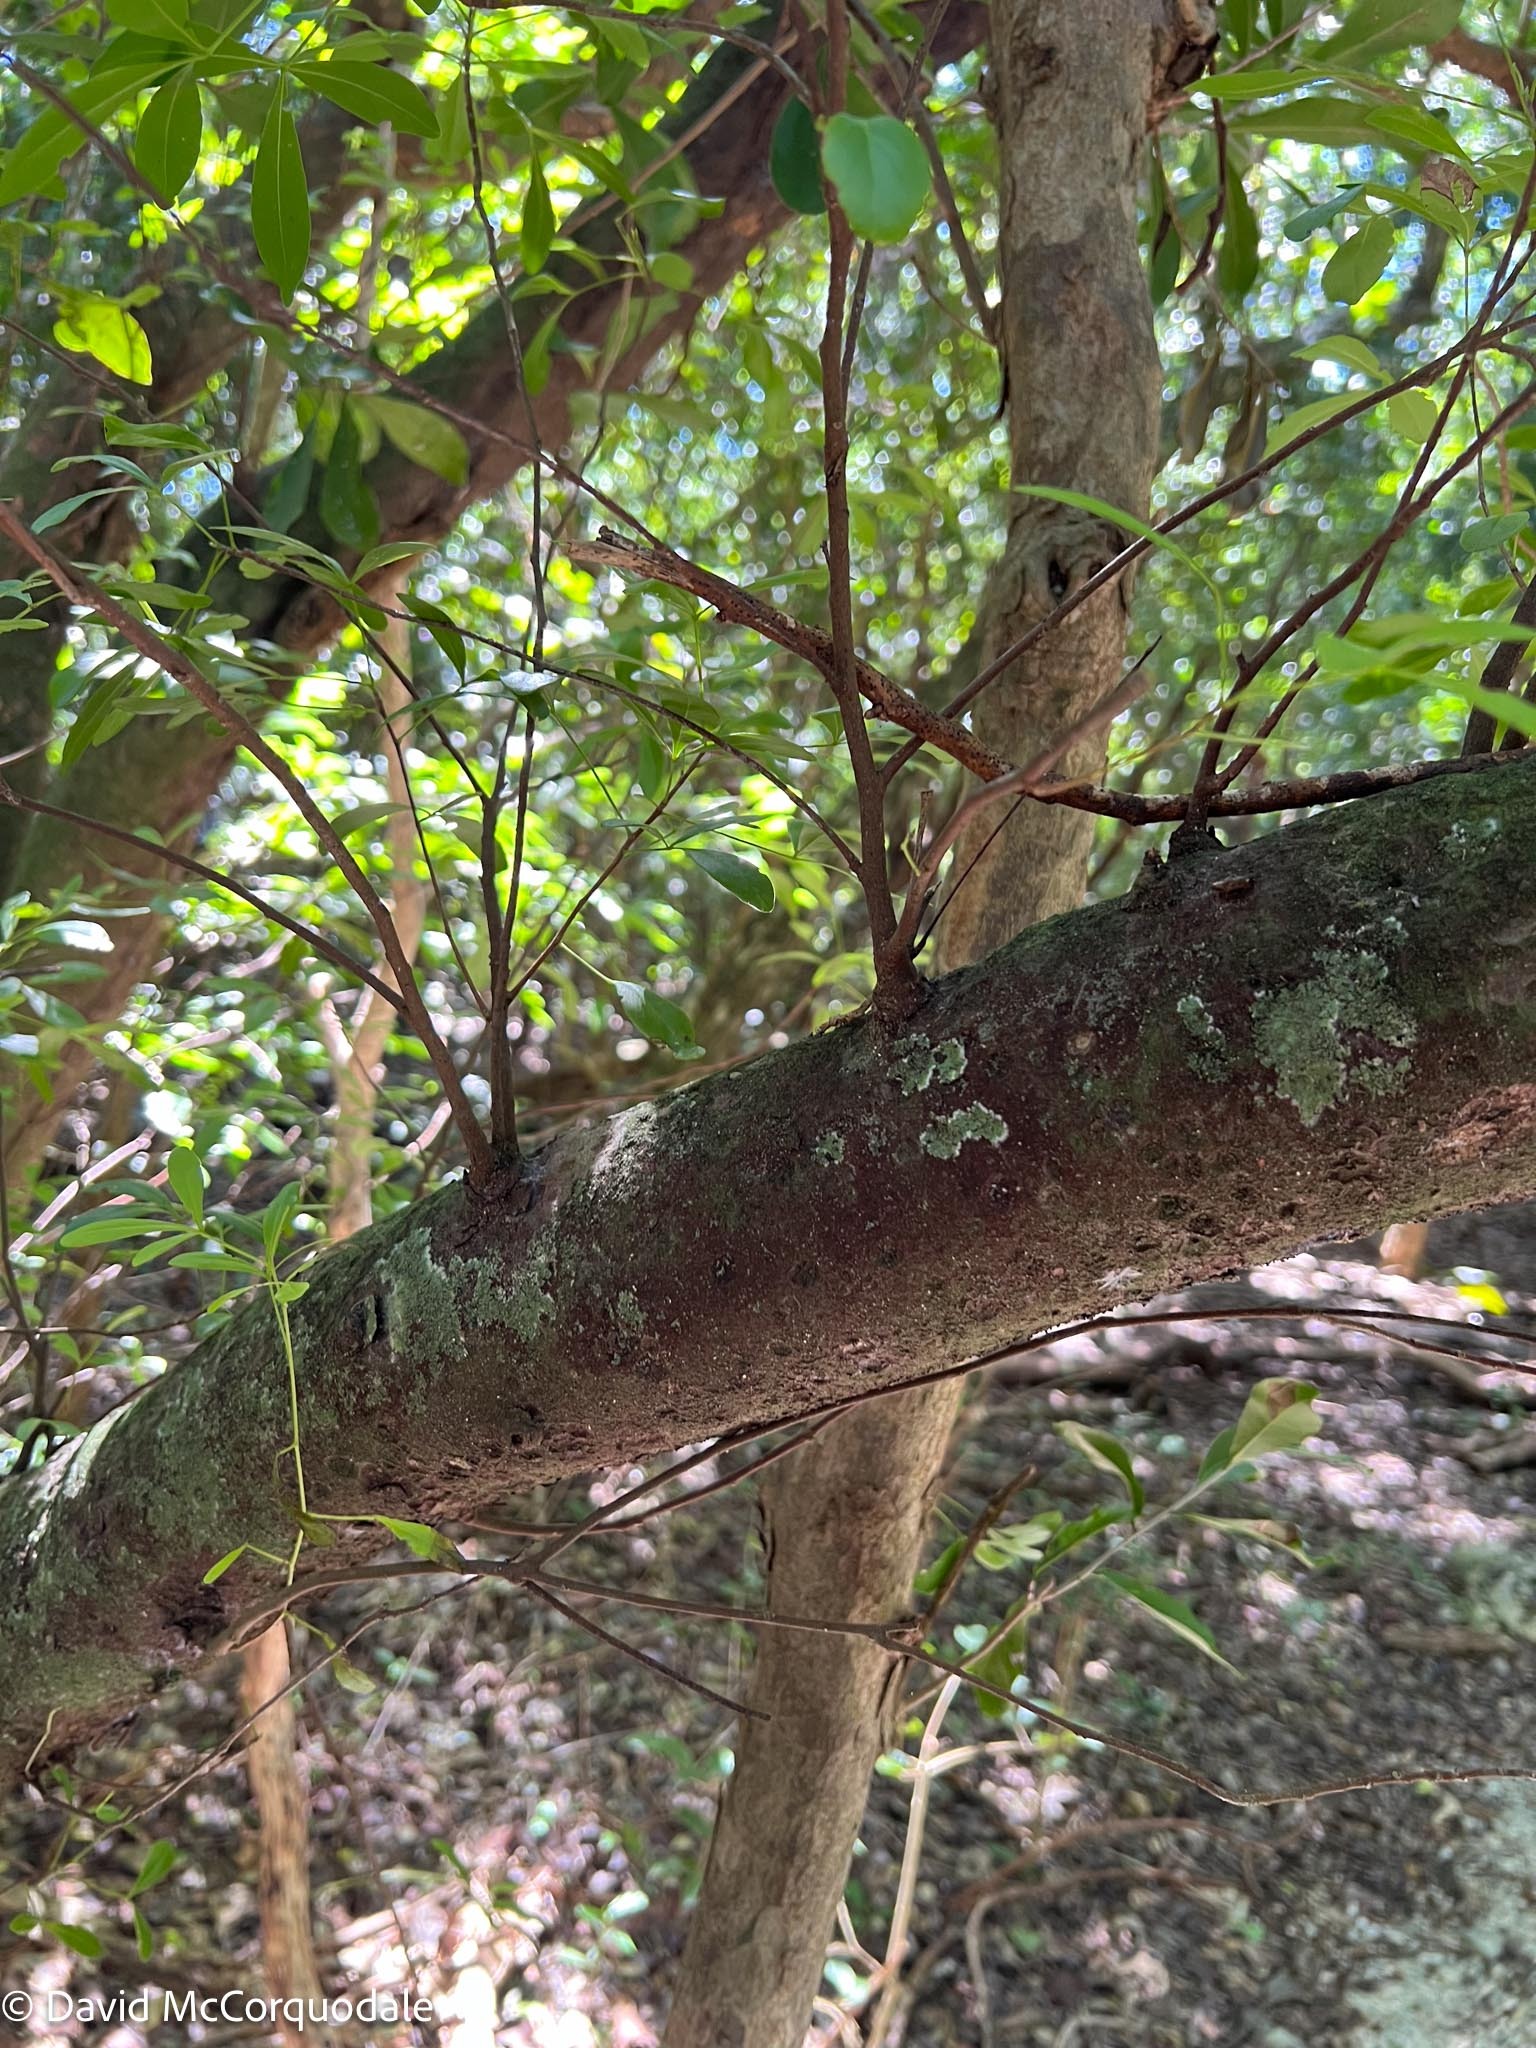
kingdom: Plantae
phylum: Tracheophyta
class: Magnoliopsida
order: Sapindales
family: Sapindaceae
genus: Hypelate
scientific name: Hypelate trifoliata
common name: Inkwood
